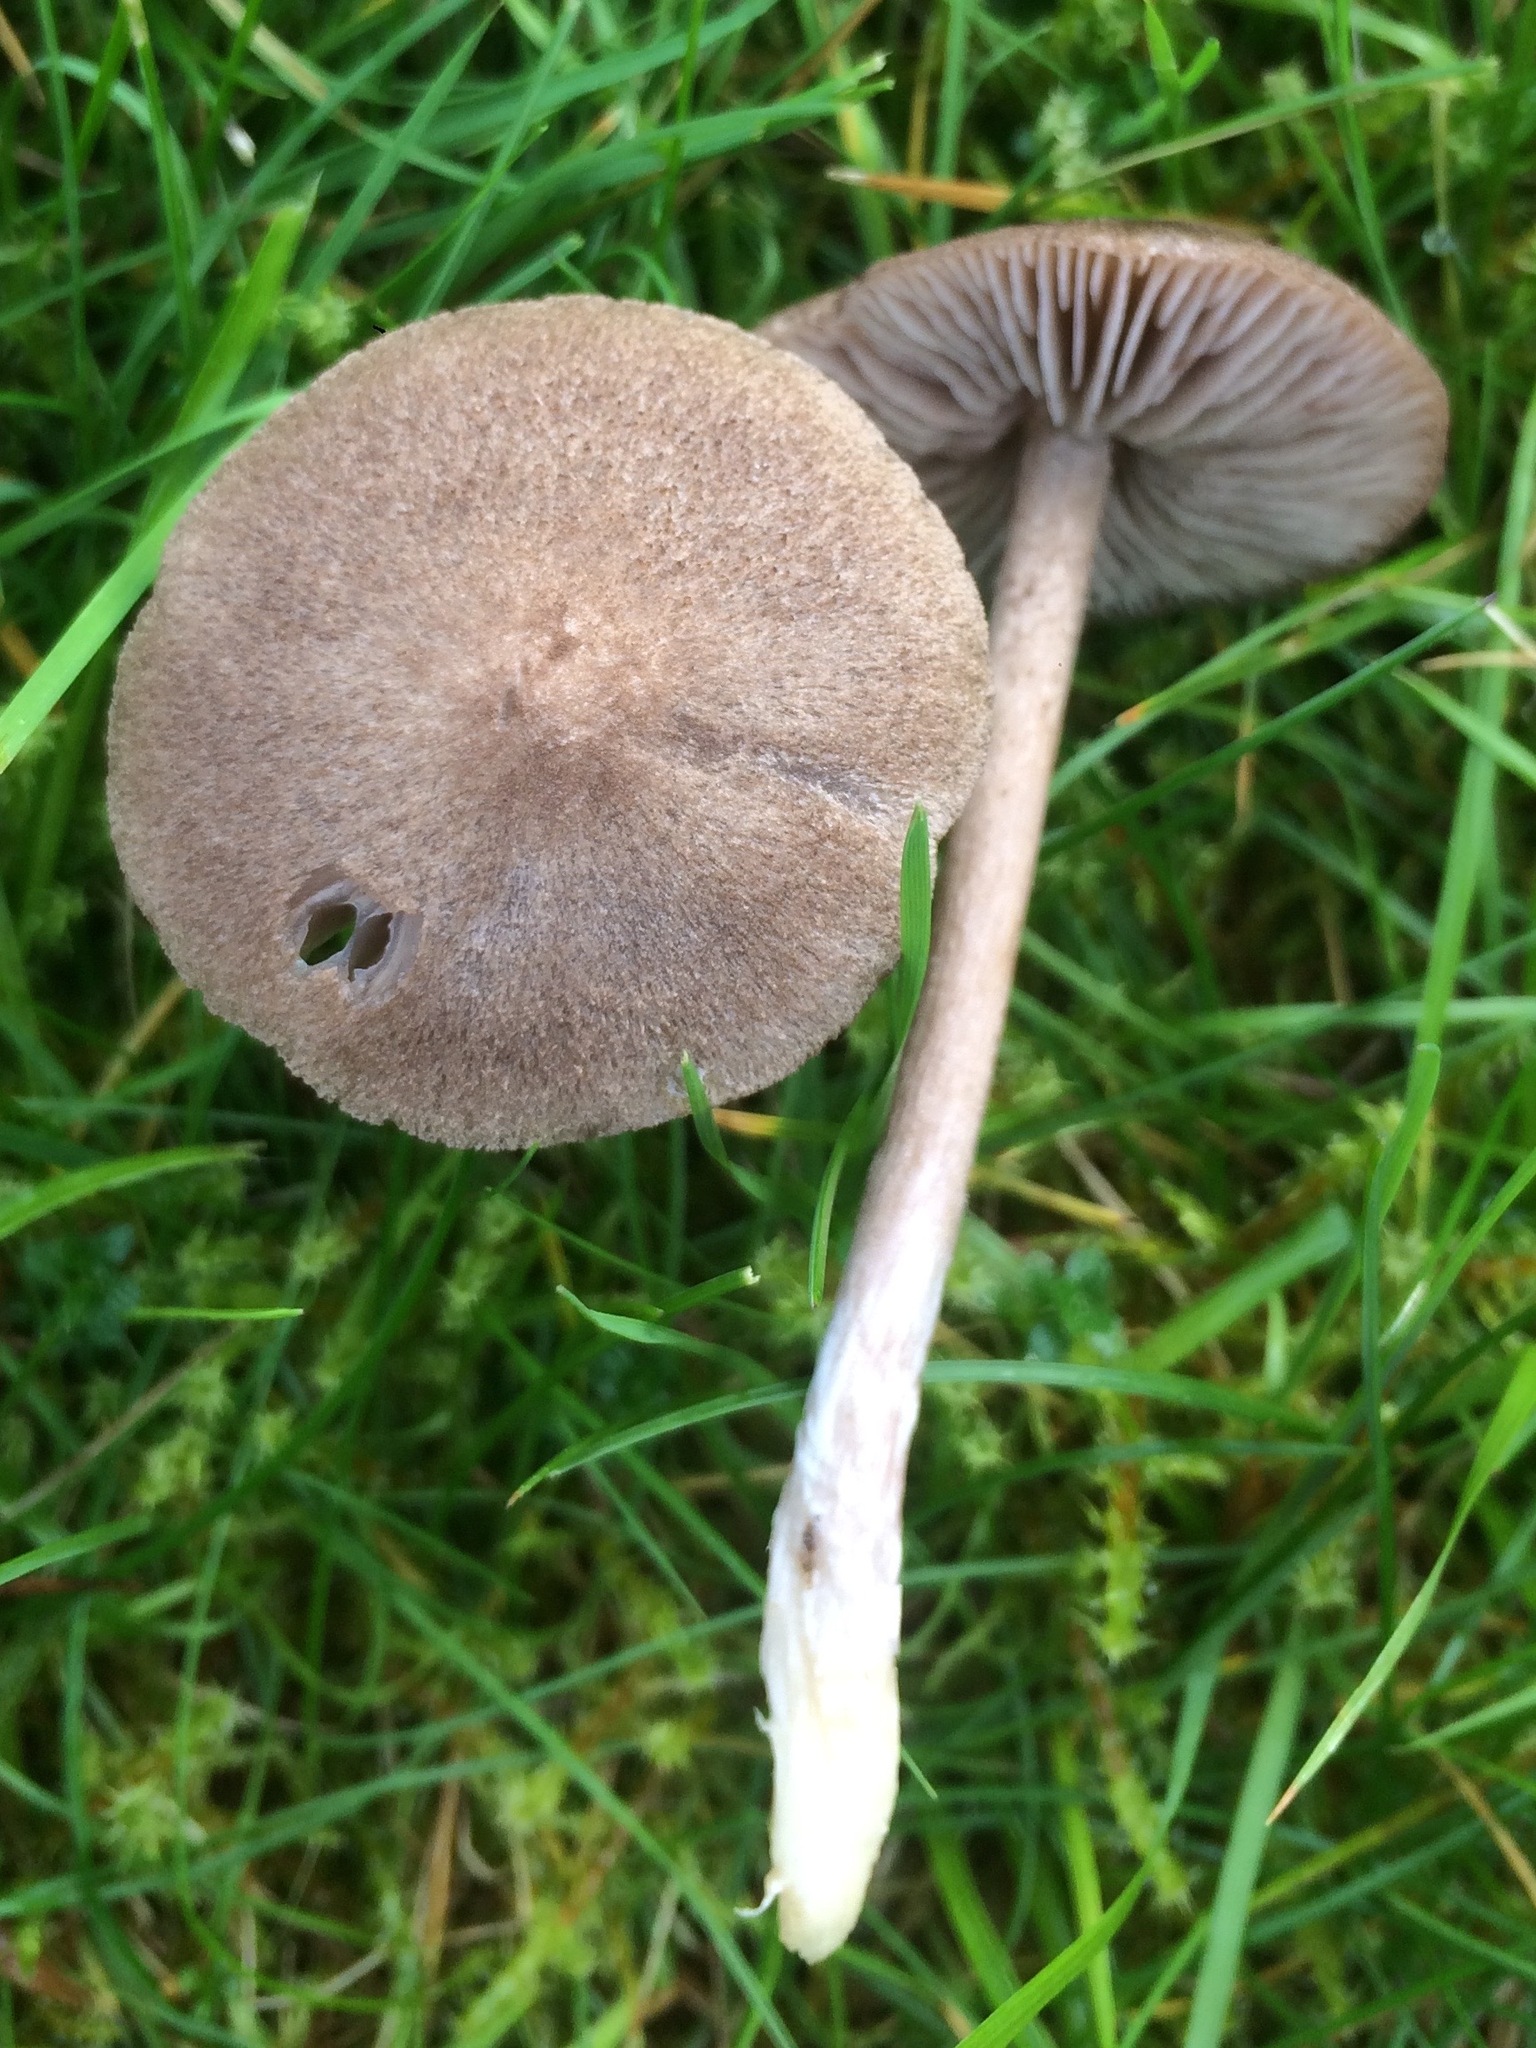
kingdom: Fungi
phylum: Basidiomycota
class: Agaricomycetes
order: Agaricales
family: Entolomataceae
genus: Entoloma
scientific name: Entoloma jubatum
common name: Sepia pinkgill
